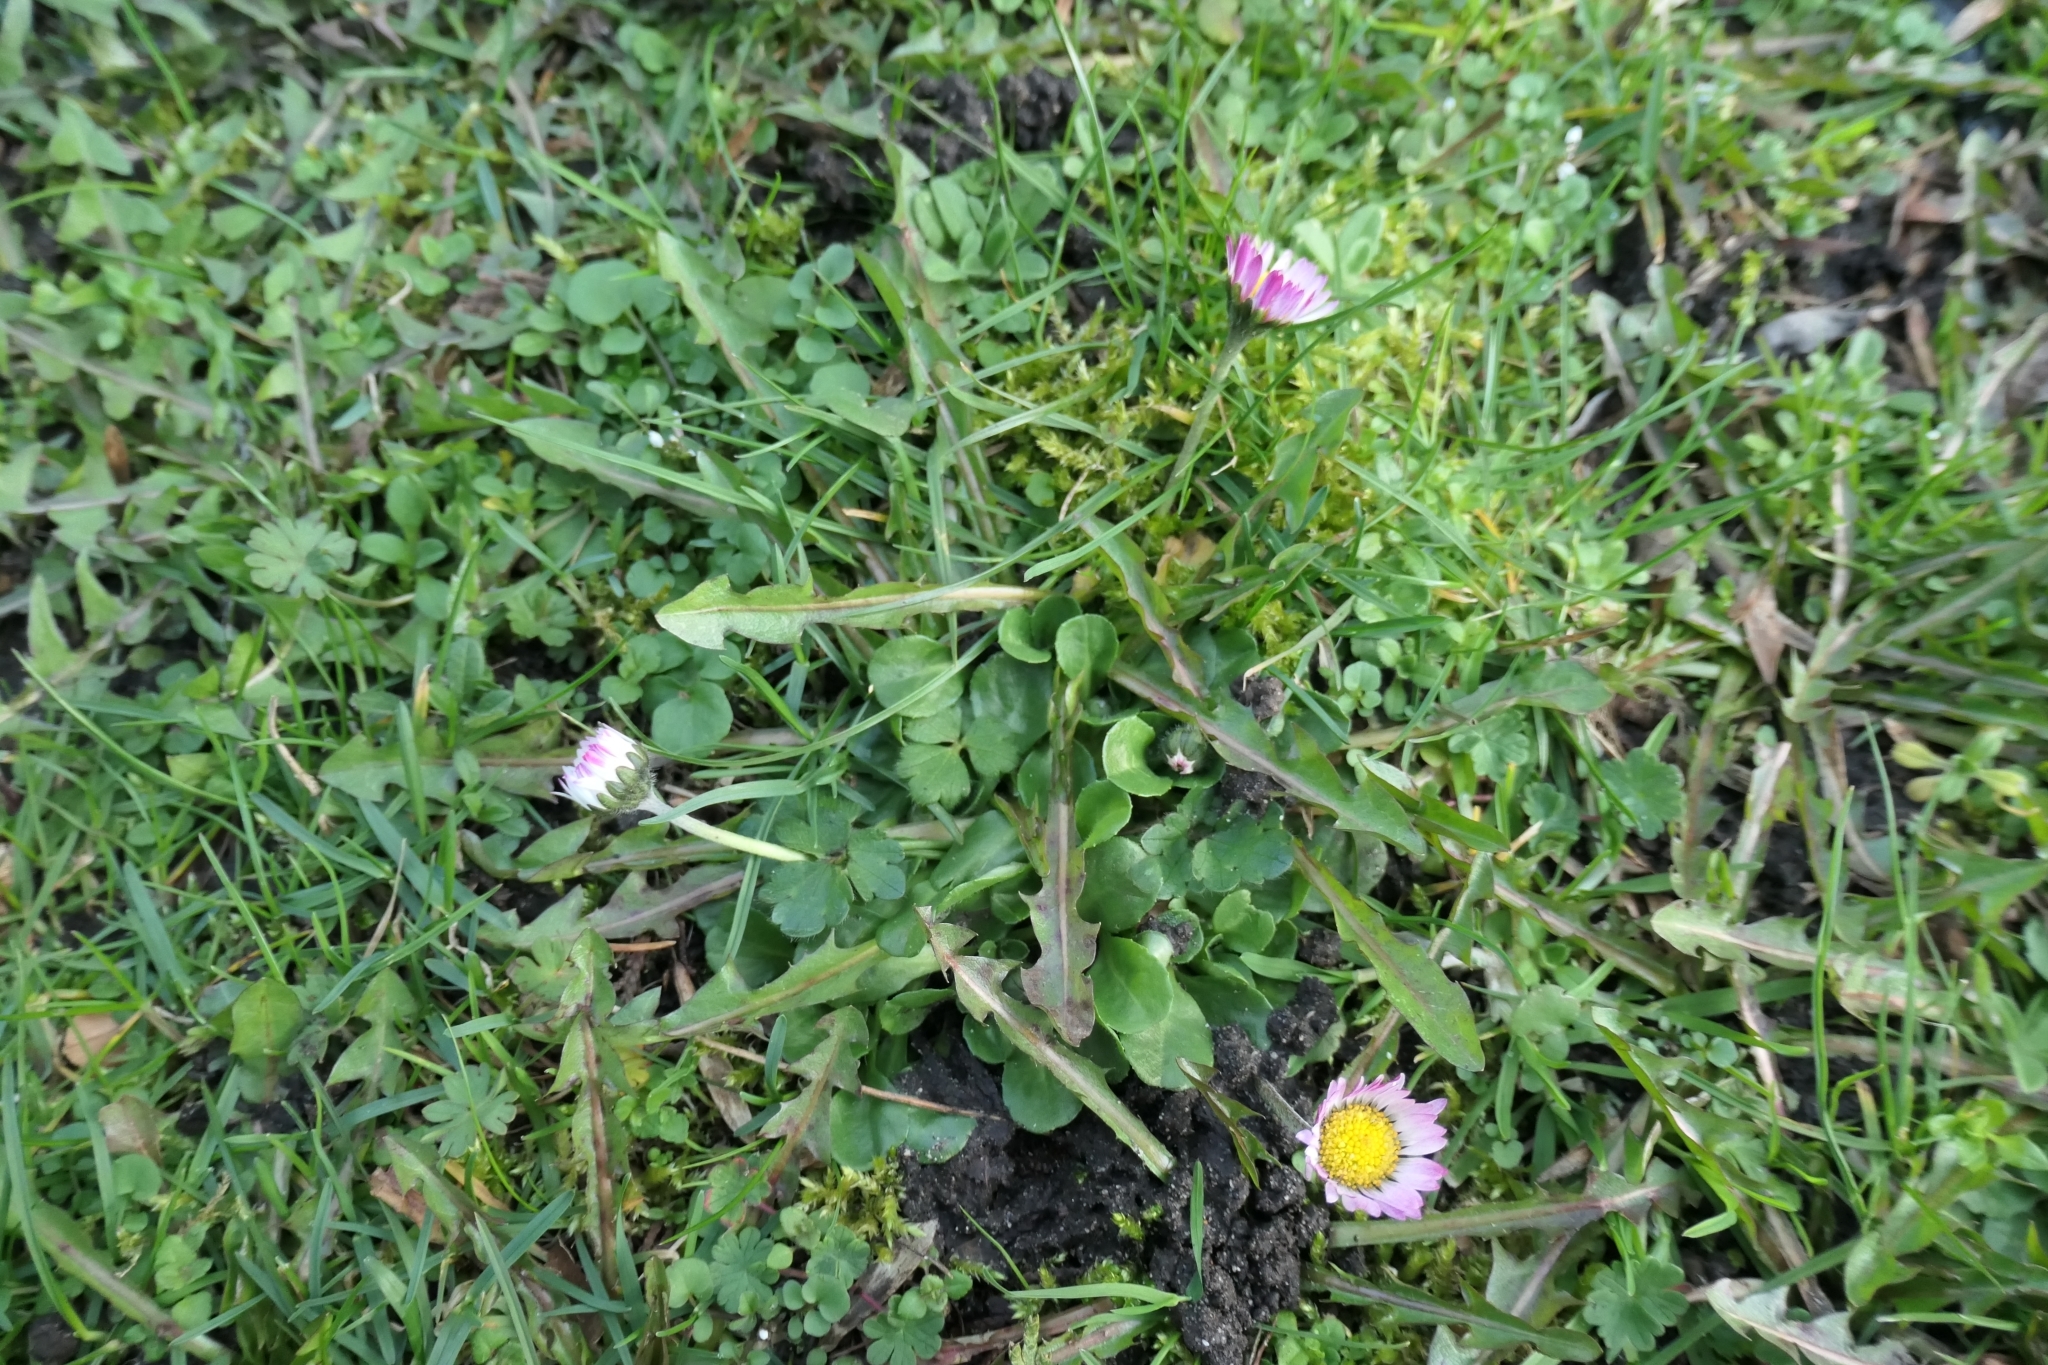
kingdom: Plantae
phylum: Tracheophyta
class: Magnoliopsida
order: Asterales
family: Asteraceae
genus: Bellis
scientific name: Bellis perennis
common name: Lawndaisy
